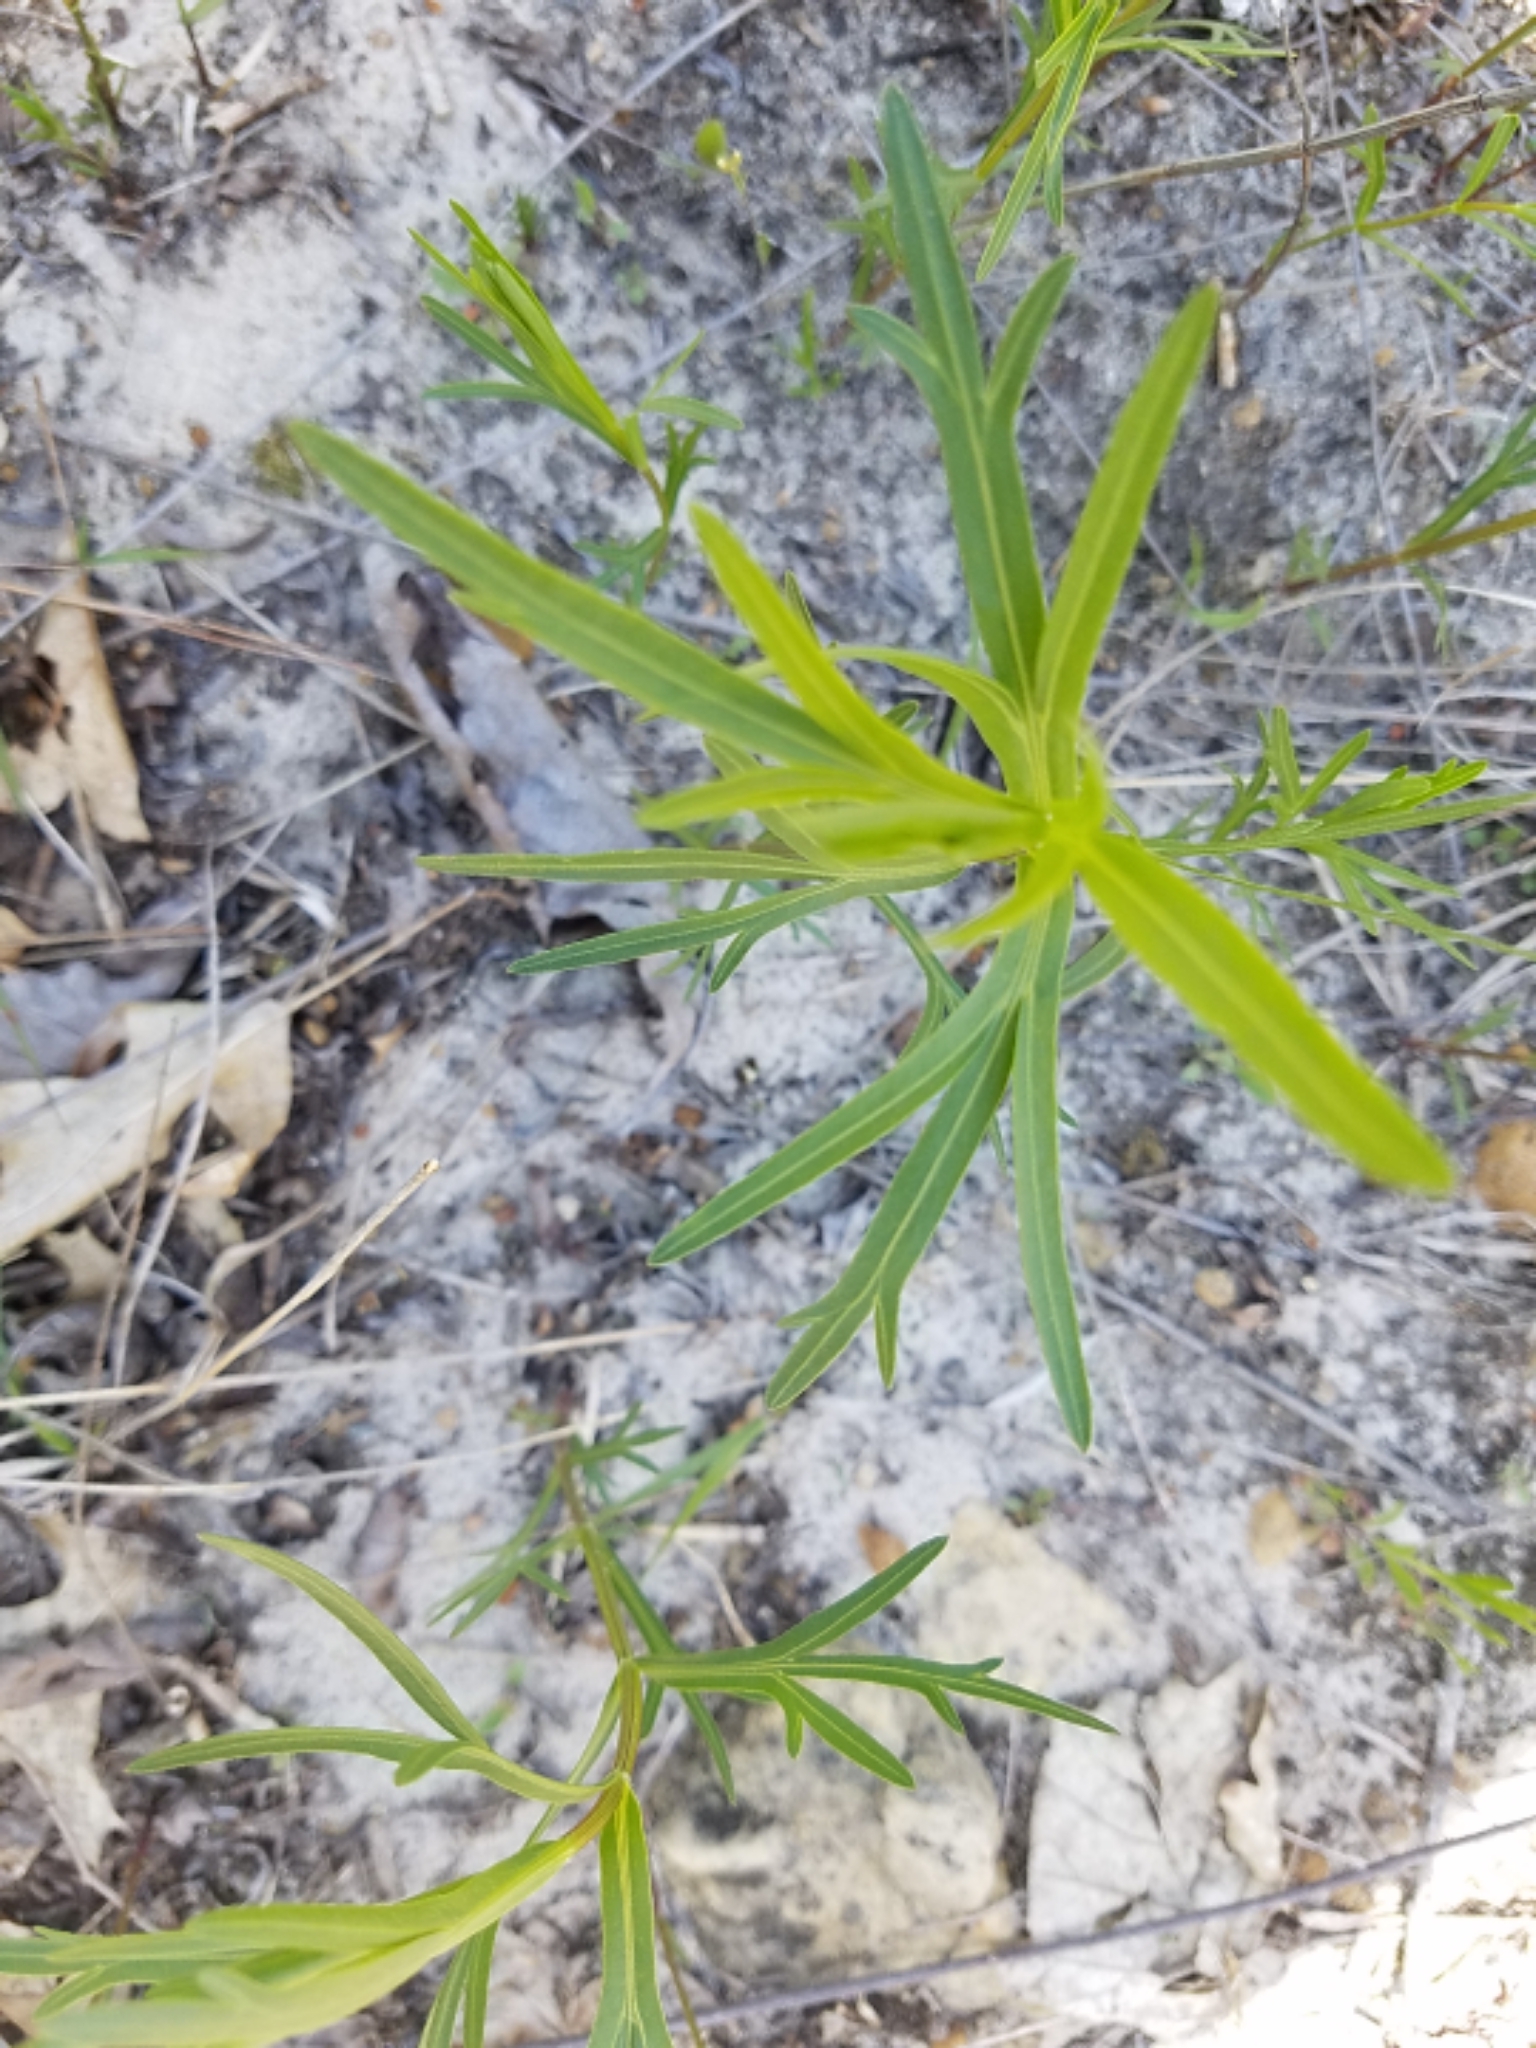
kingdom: Plantae
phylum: Tracheophyta
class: Magnoliopsida
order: Asterales
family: Asteraceae
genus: Coreopsis
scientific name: Coreopsis palmata
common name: Prairie coreopsis
